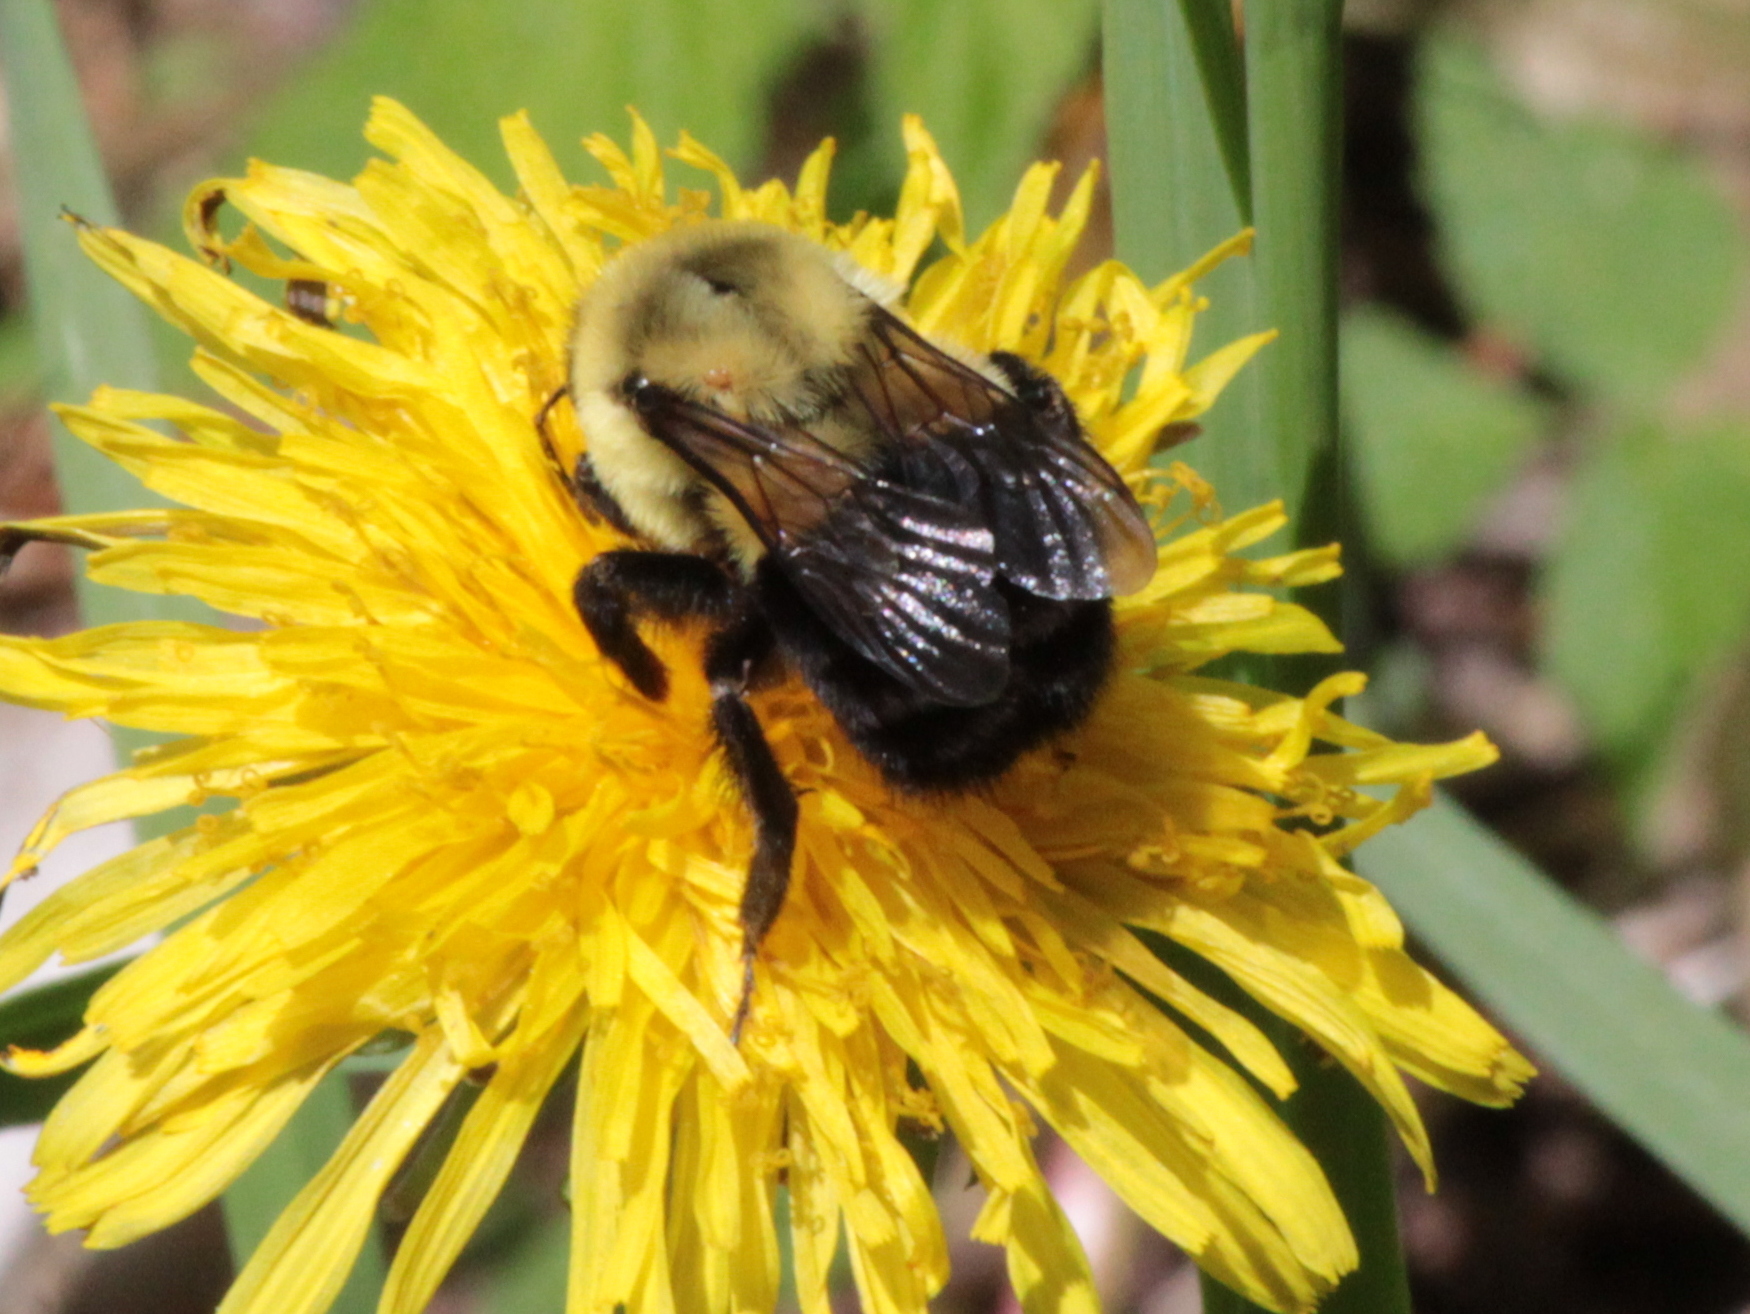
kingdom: Animalia
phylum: Arthropoda
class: Insecta
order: Hymenoptera
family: Apidae
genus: Bombus
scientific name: Bombus impatiens
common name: Common eastern bumble bee
